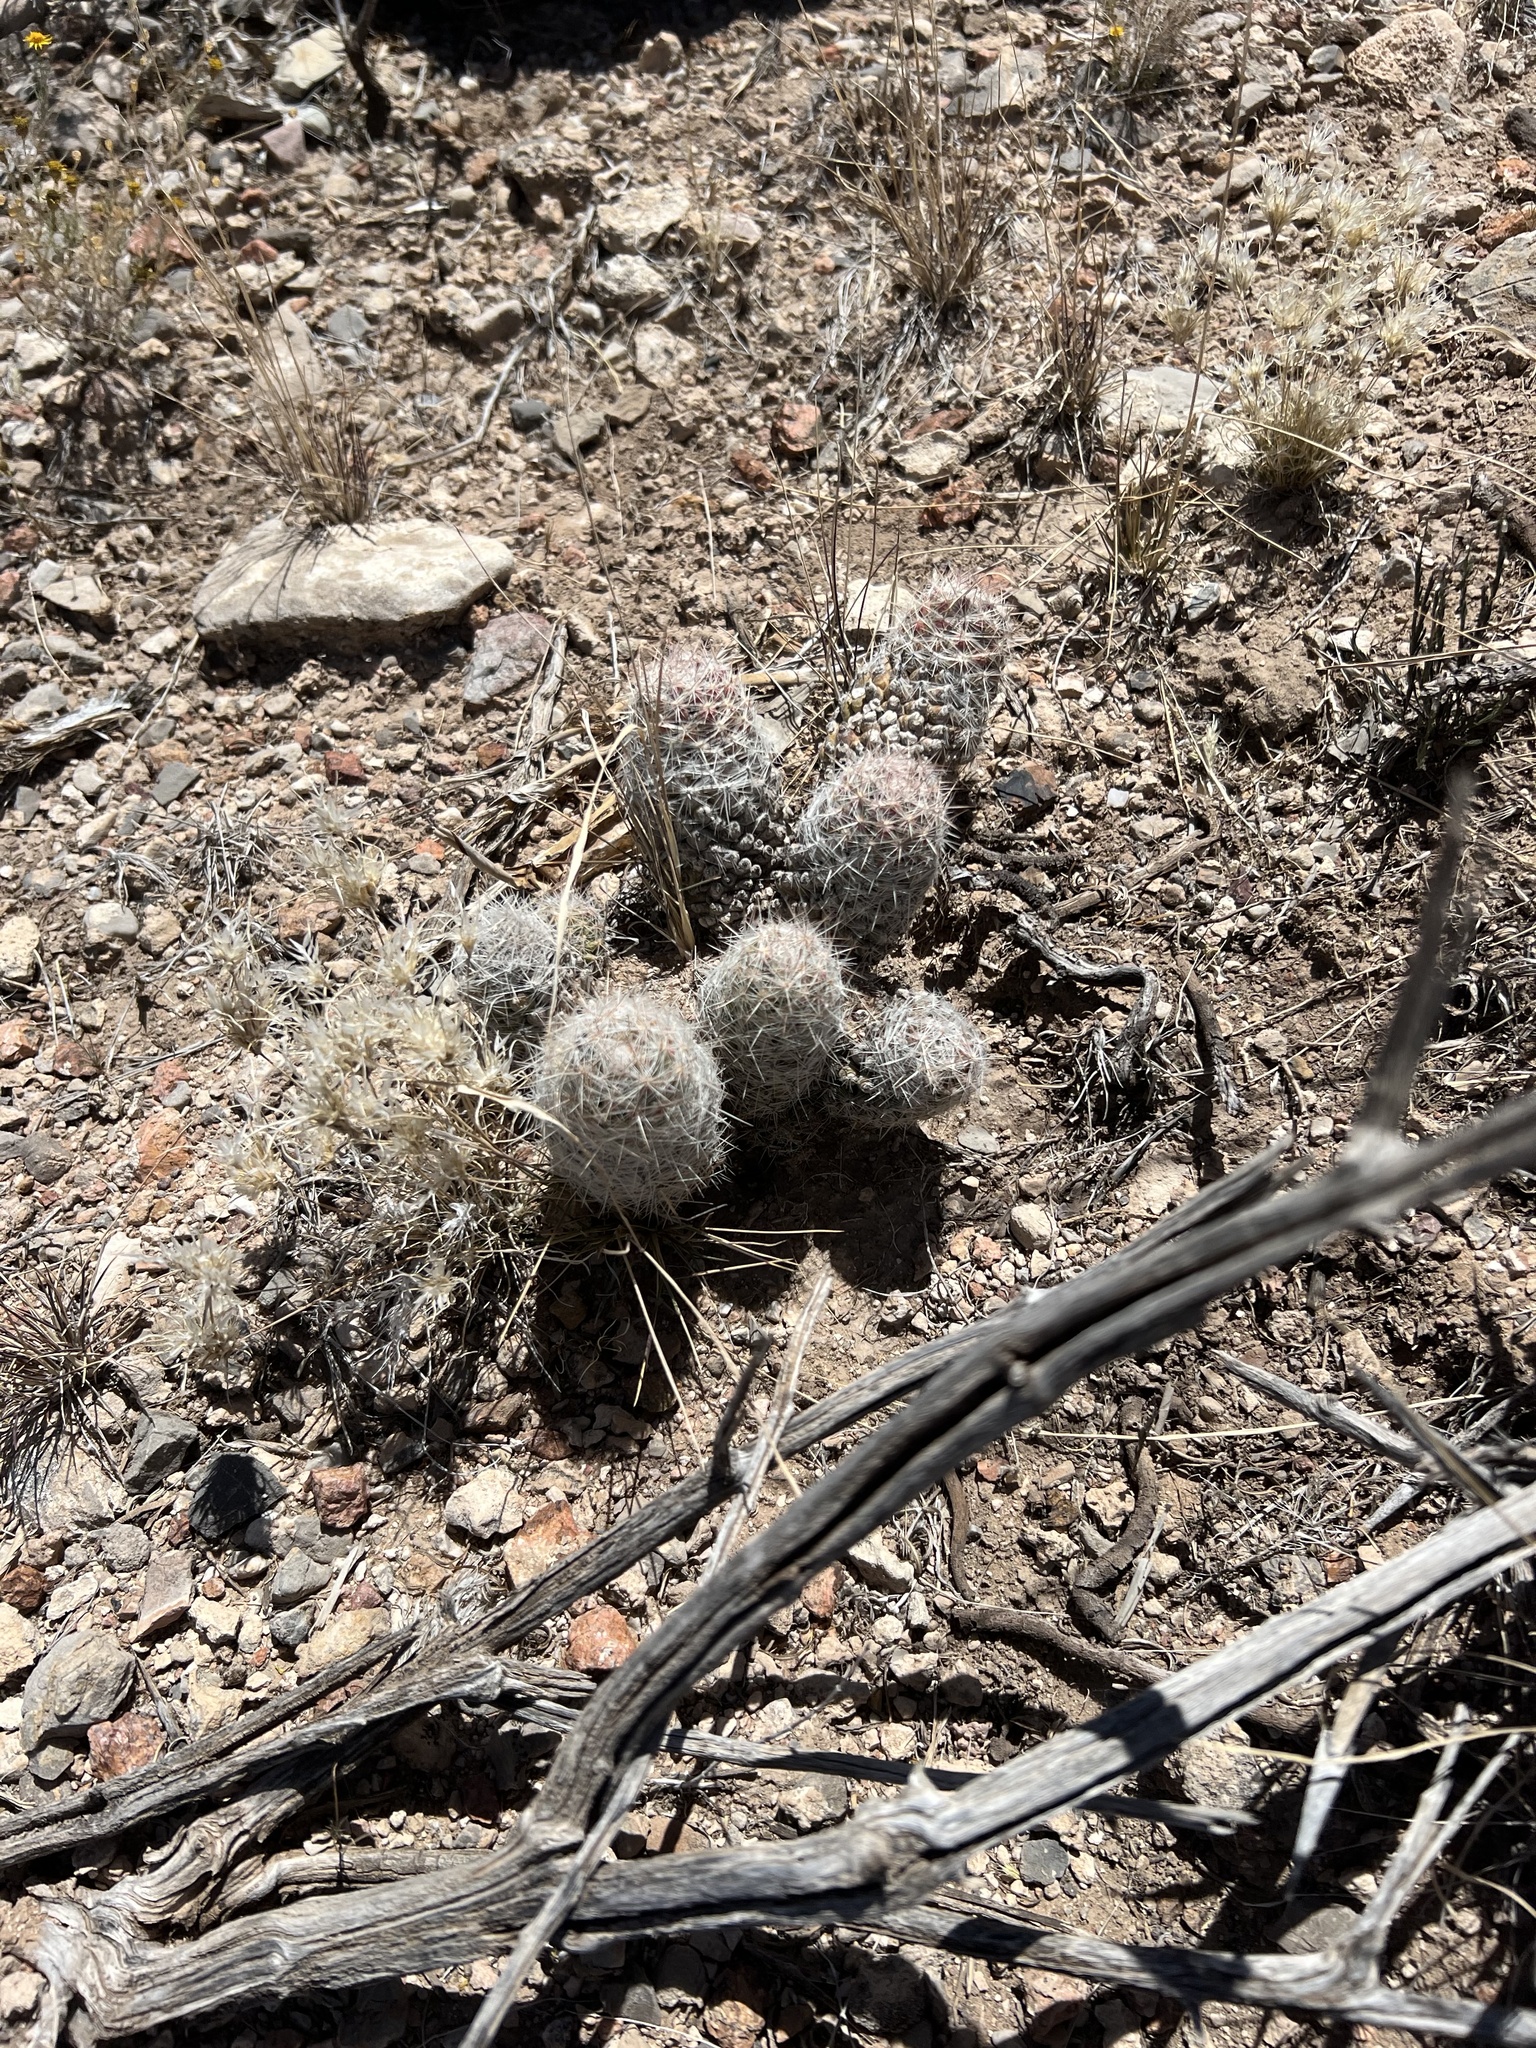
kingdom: Plantae
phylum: Tracheophyta
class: Magnoliopsida
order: Caryophyllales
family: Cactaceae
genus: Pelecyphora
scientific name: Pelecyphora tuberculosa
